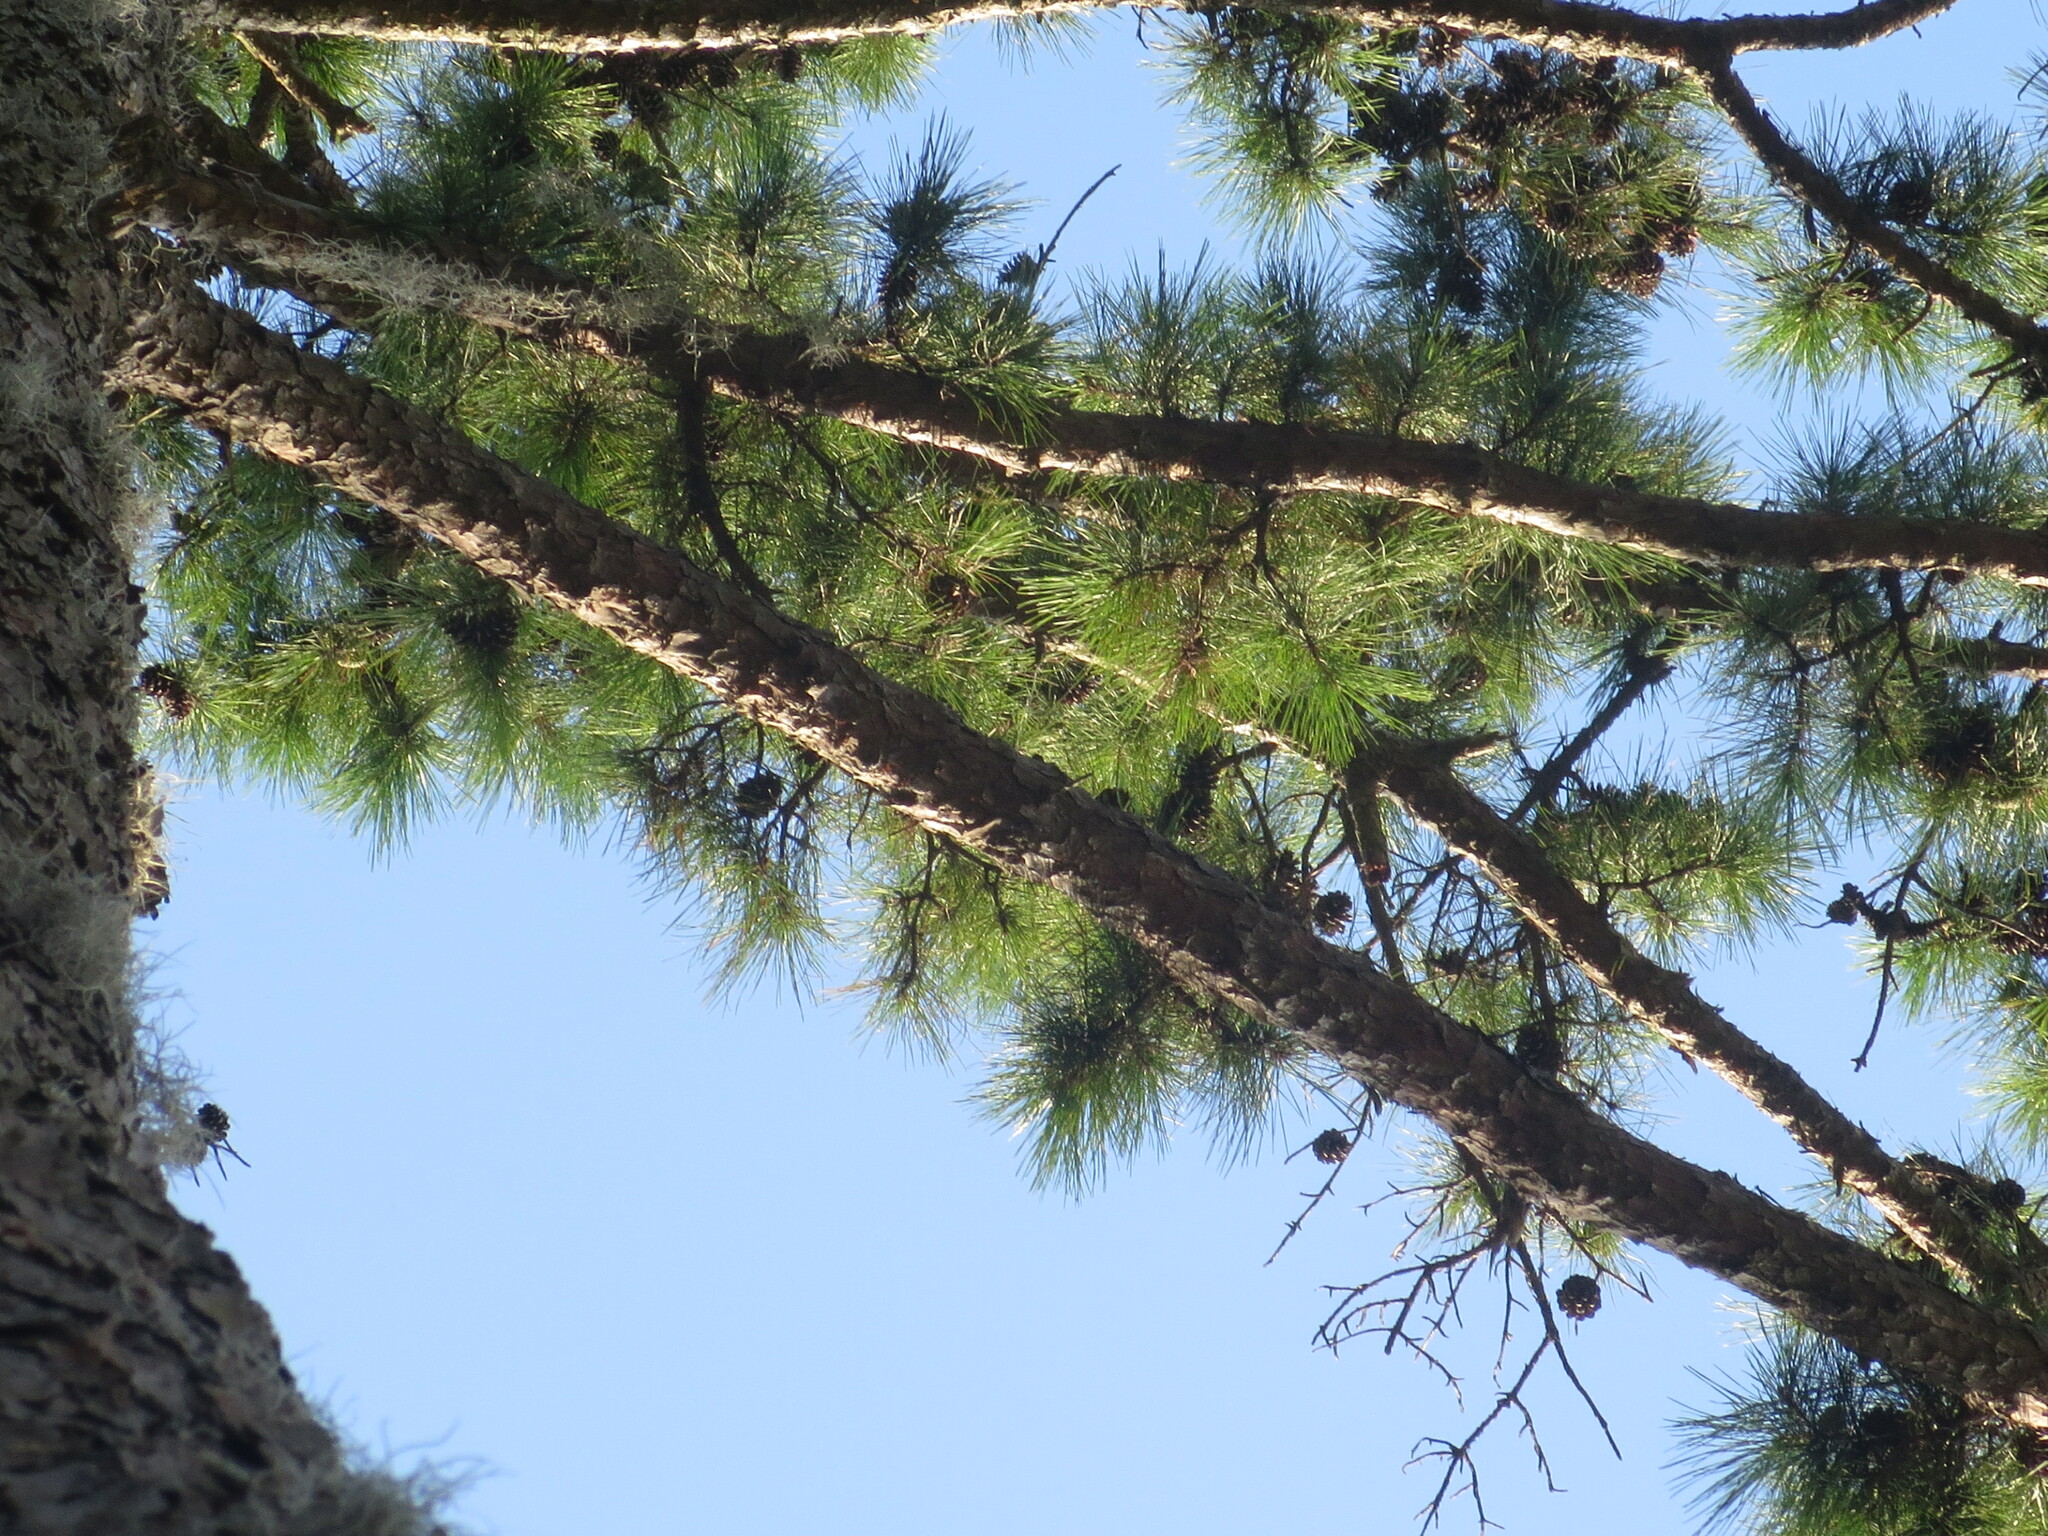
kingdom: Plantae
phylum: Tracheophyta
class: Pinopsida
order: Pinales
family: Pinaceae
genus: Pinus
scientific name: Pinus echinata
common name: Shortleaf pine
